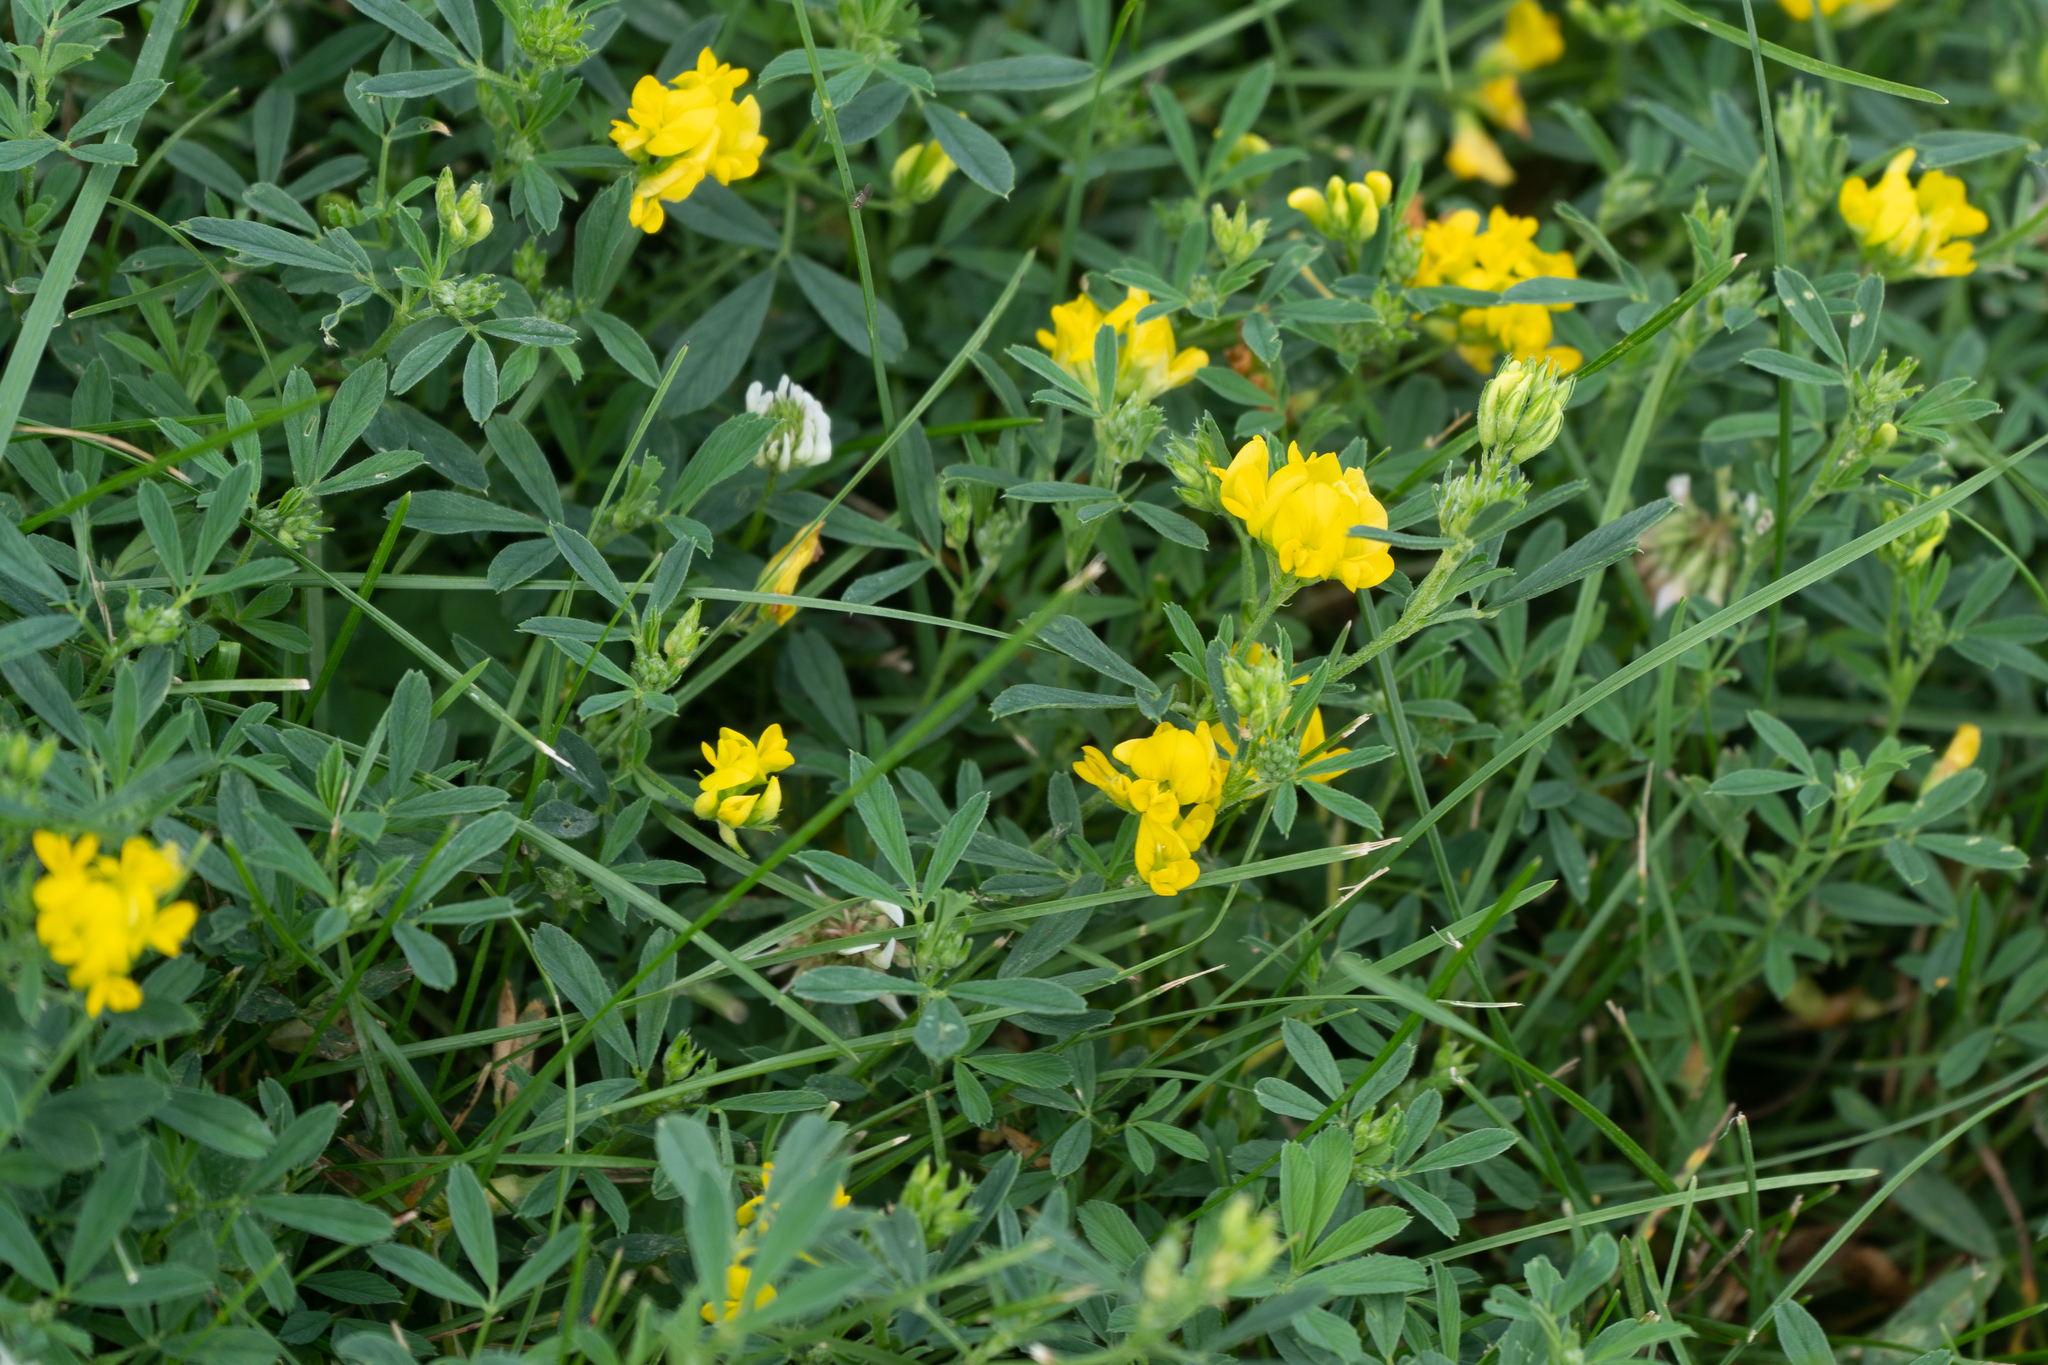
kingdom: Plantae
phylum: Tracheophyta
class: Magnoliopsida
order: Fabales
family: Fabaceae
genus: Medicago
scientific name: Medicago falcata
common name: Sickle medick
